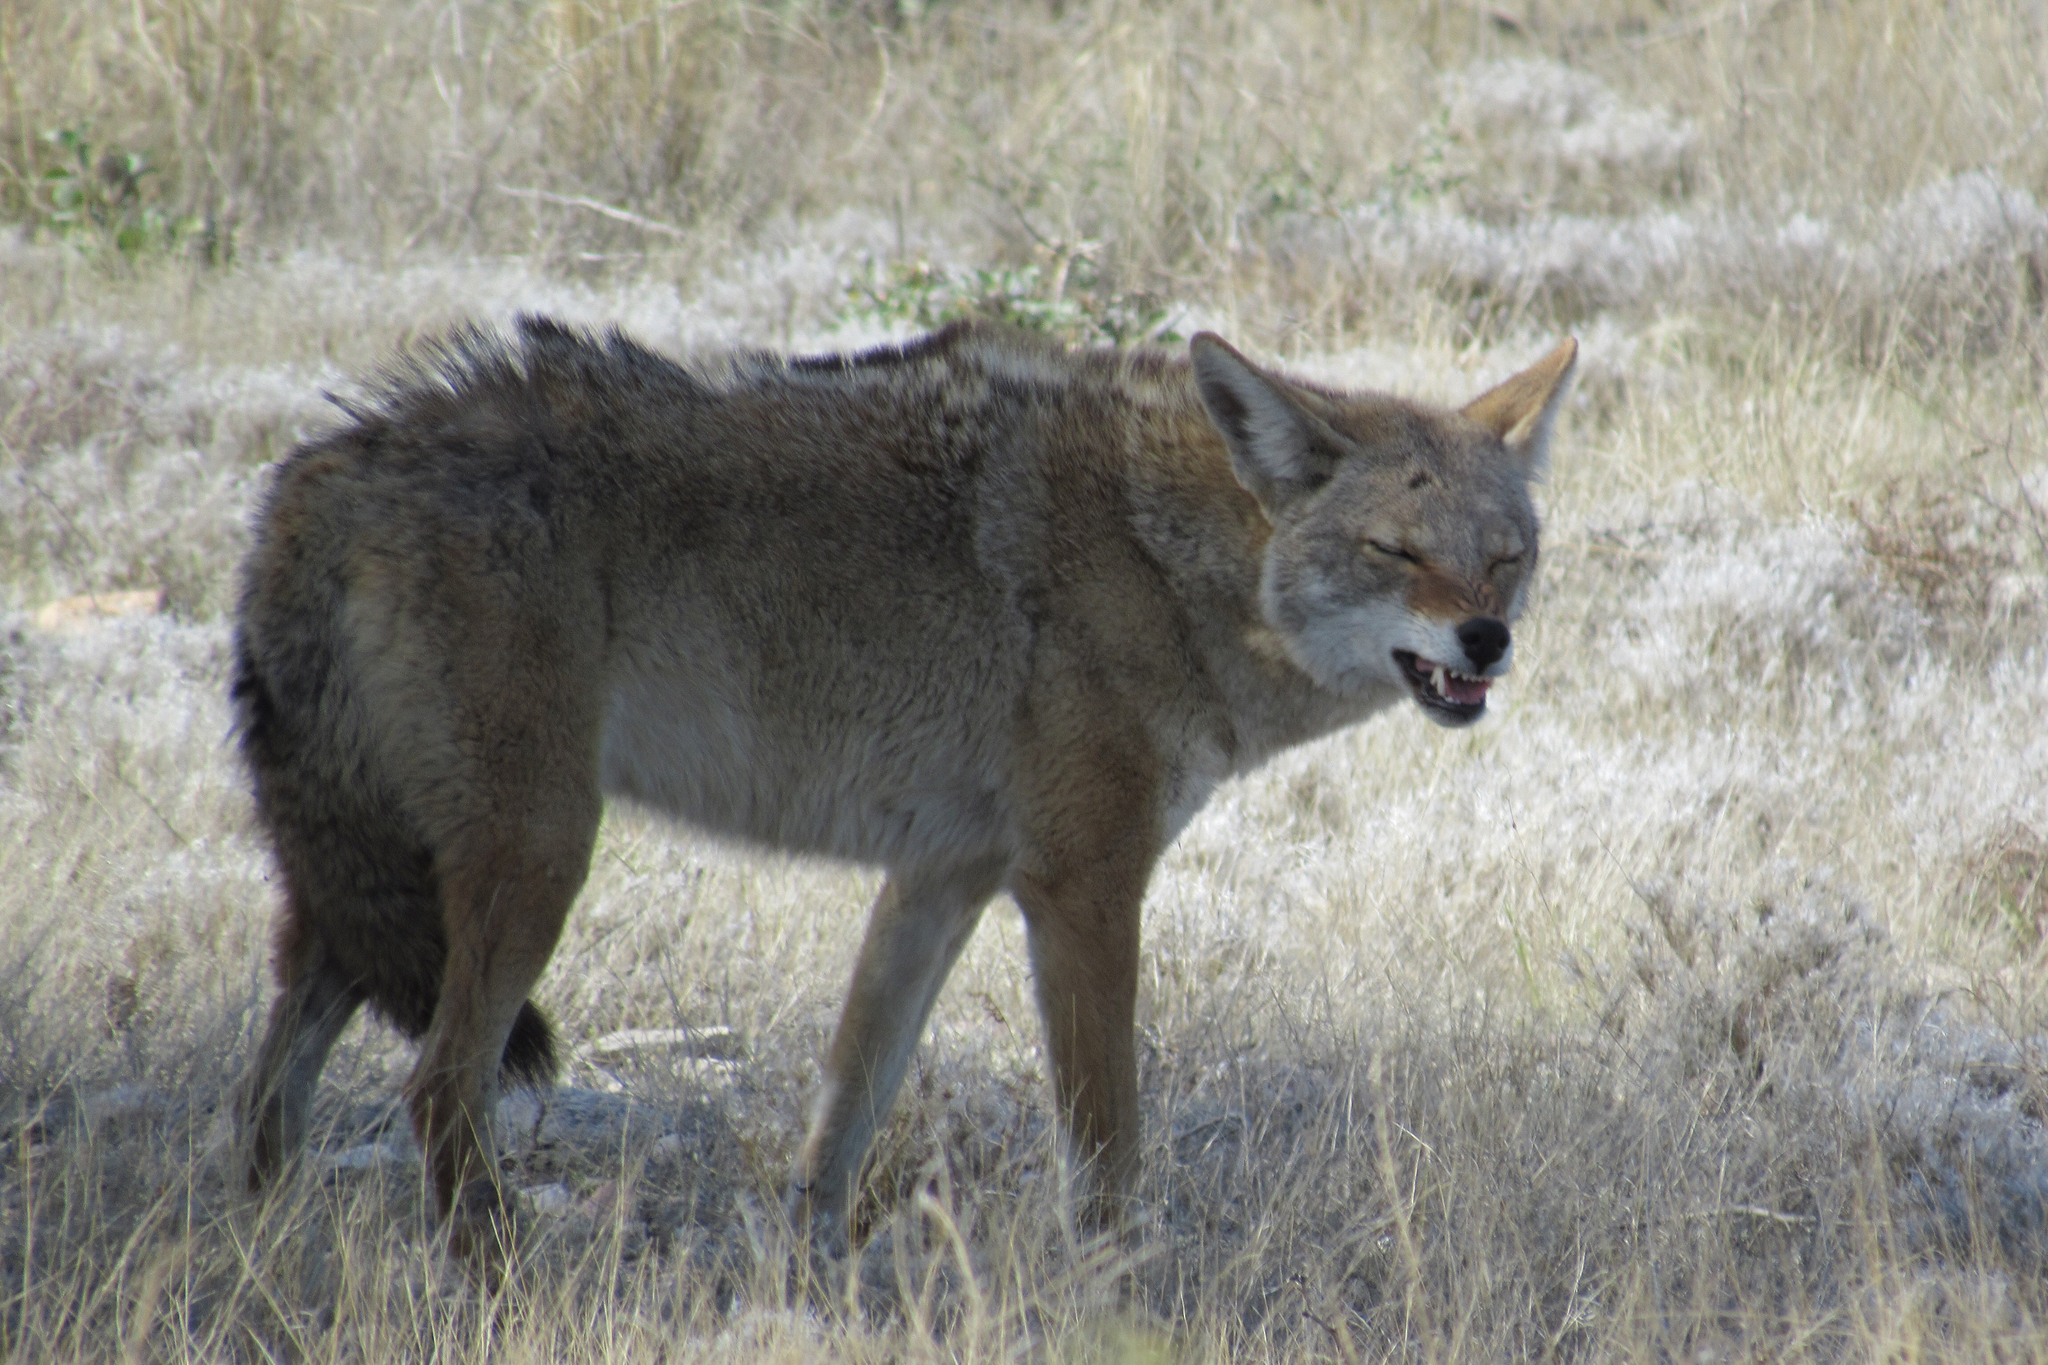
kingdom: Animalia
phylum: Chordata
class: Mammalia
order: Carnivora
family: Canidae
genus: Canis
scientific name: Canis latrans
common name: Coyote
